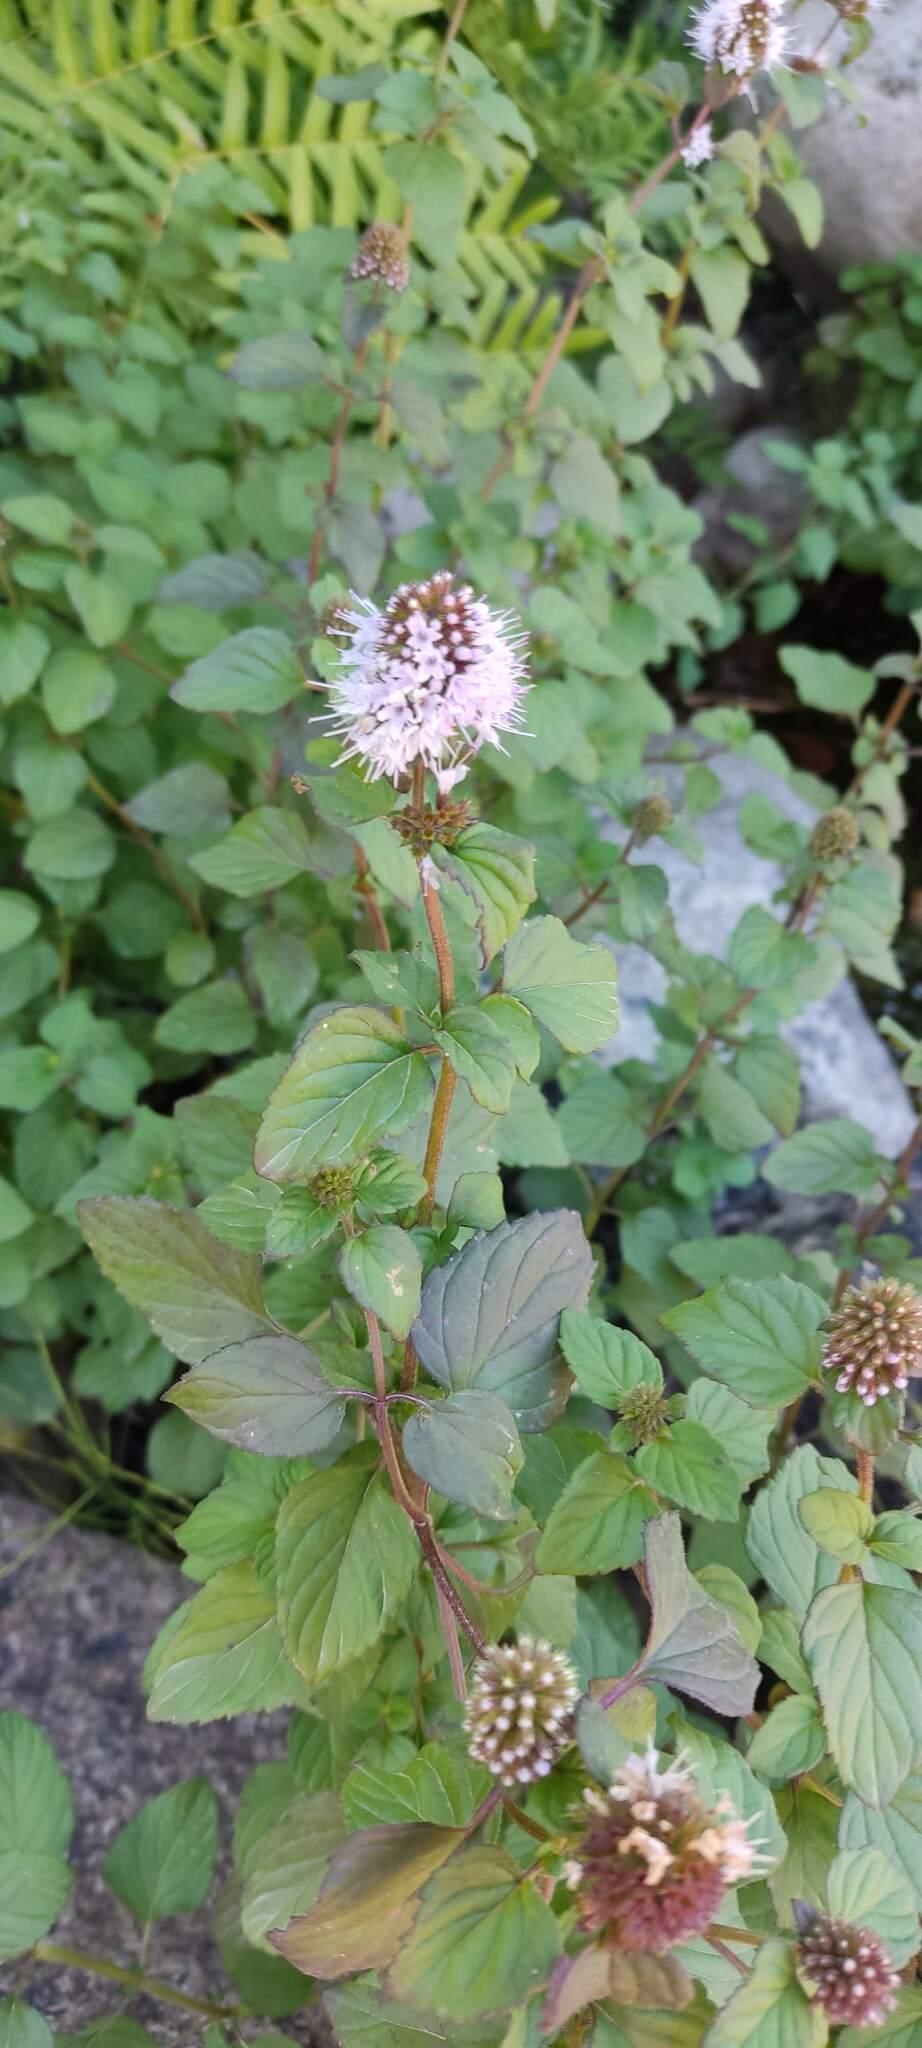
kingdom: Plantae
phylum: Tracheophyta
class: Magnoliopsida
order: Lamiales
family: Lamiaceae
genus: Mentha
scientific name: Mentha aquatica
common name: Water mint
